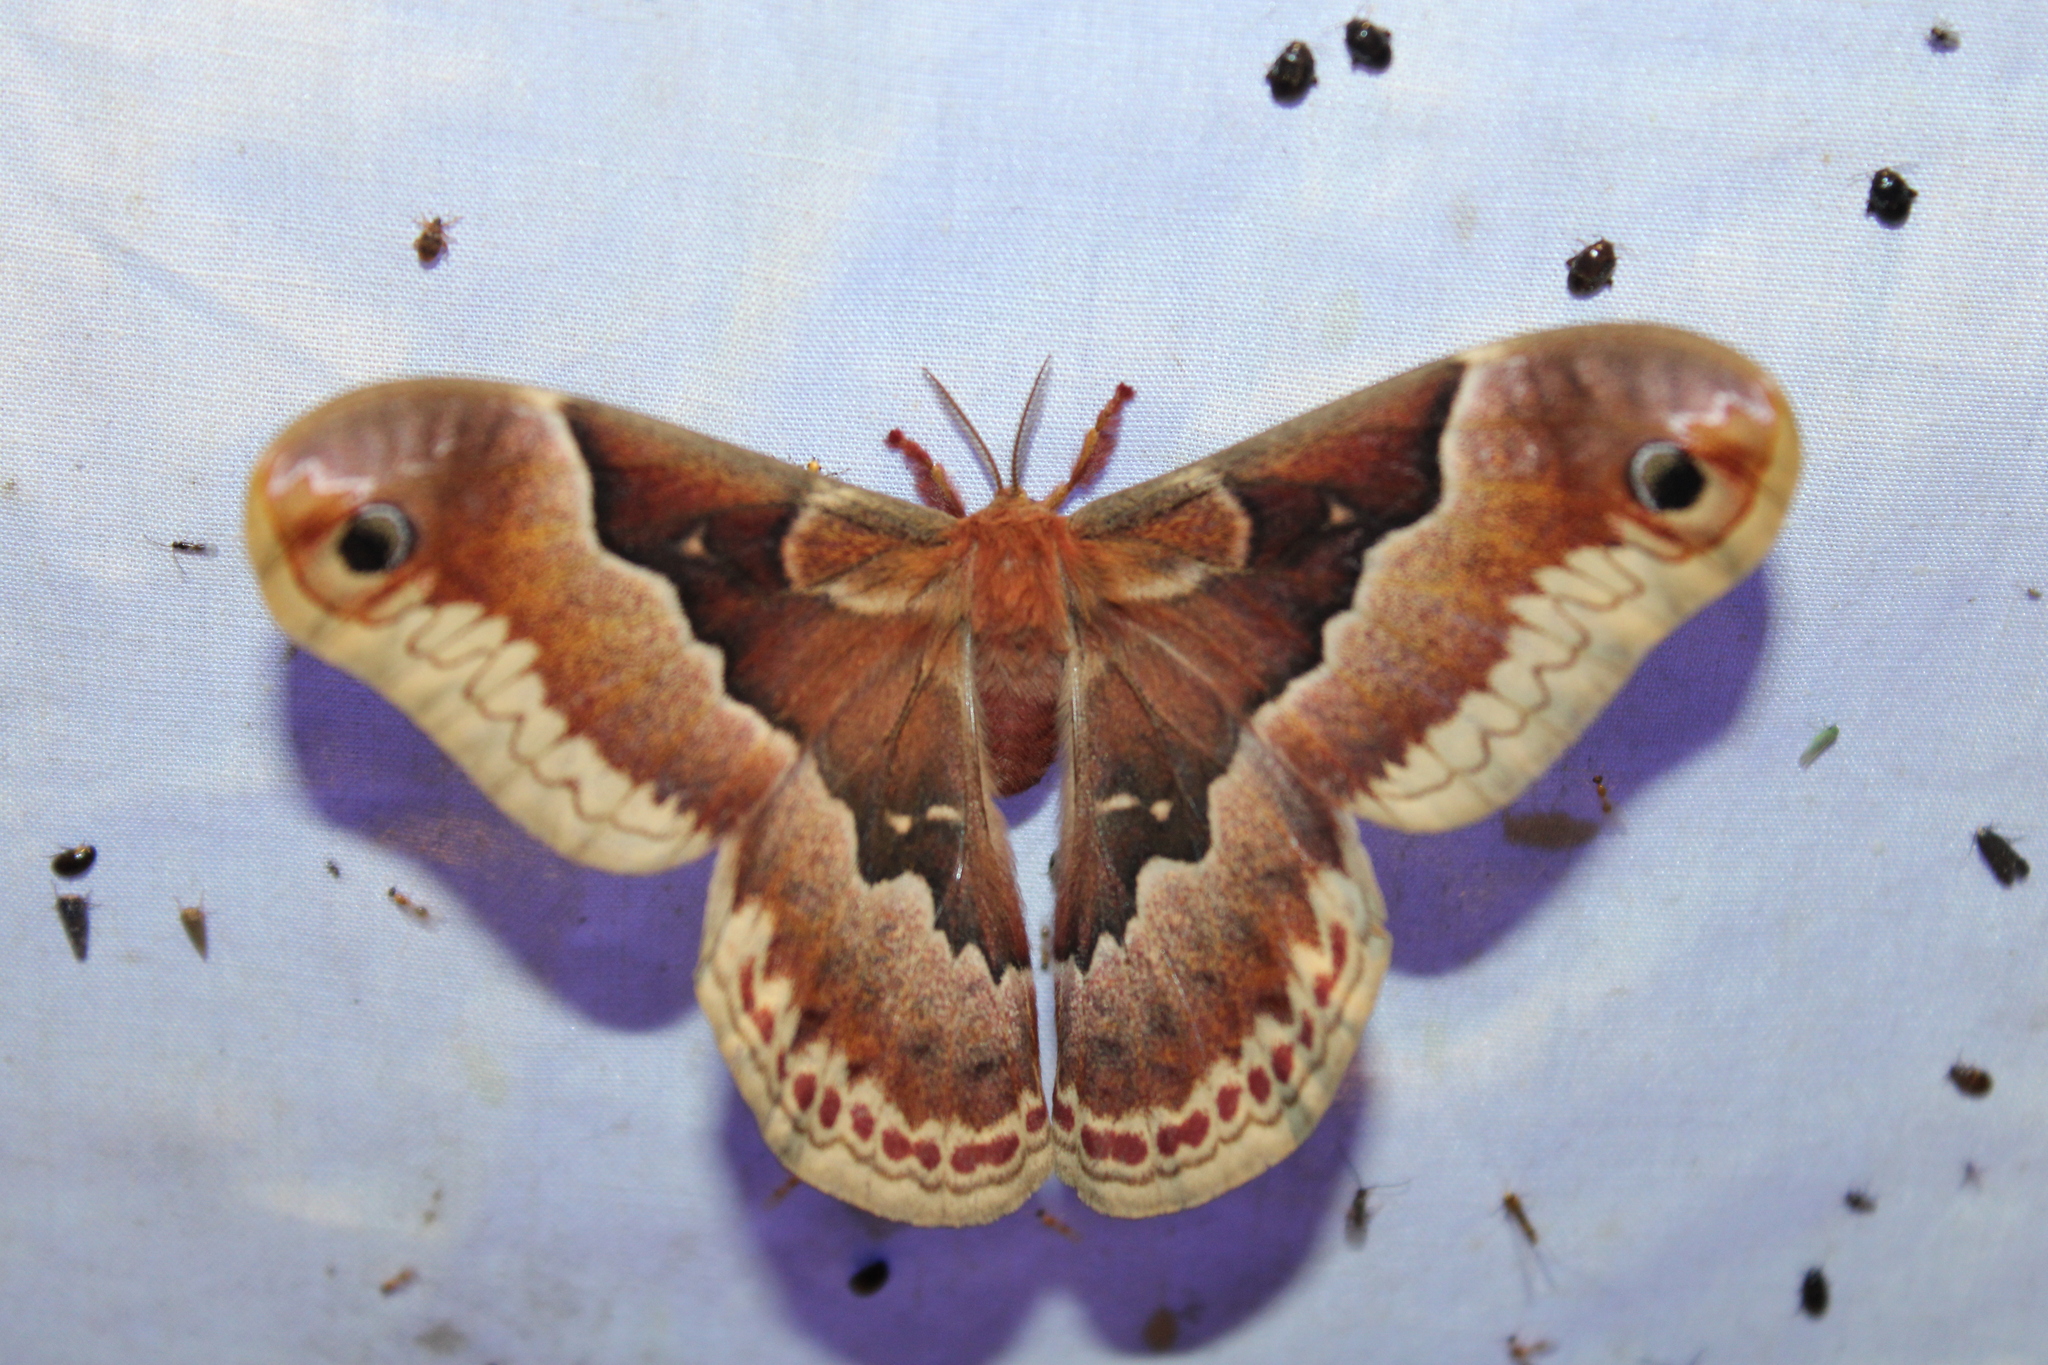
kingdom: Animalia
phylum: Arthropoda
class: Insecta
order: Lepidoptera
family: Saturniidae
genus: Callosamia
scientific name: Callosamia promethea
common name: Promethea silkmoth
